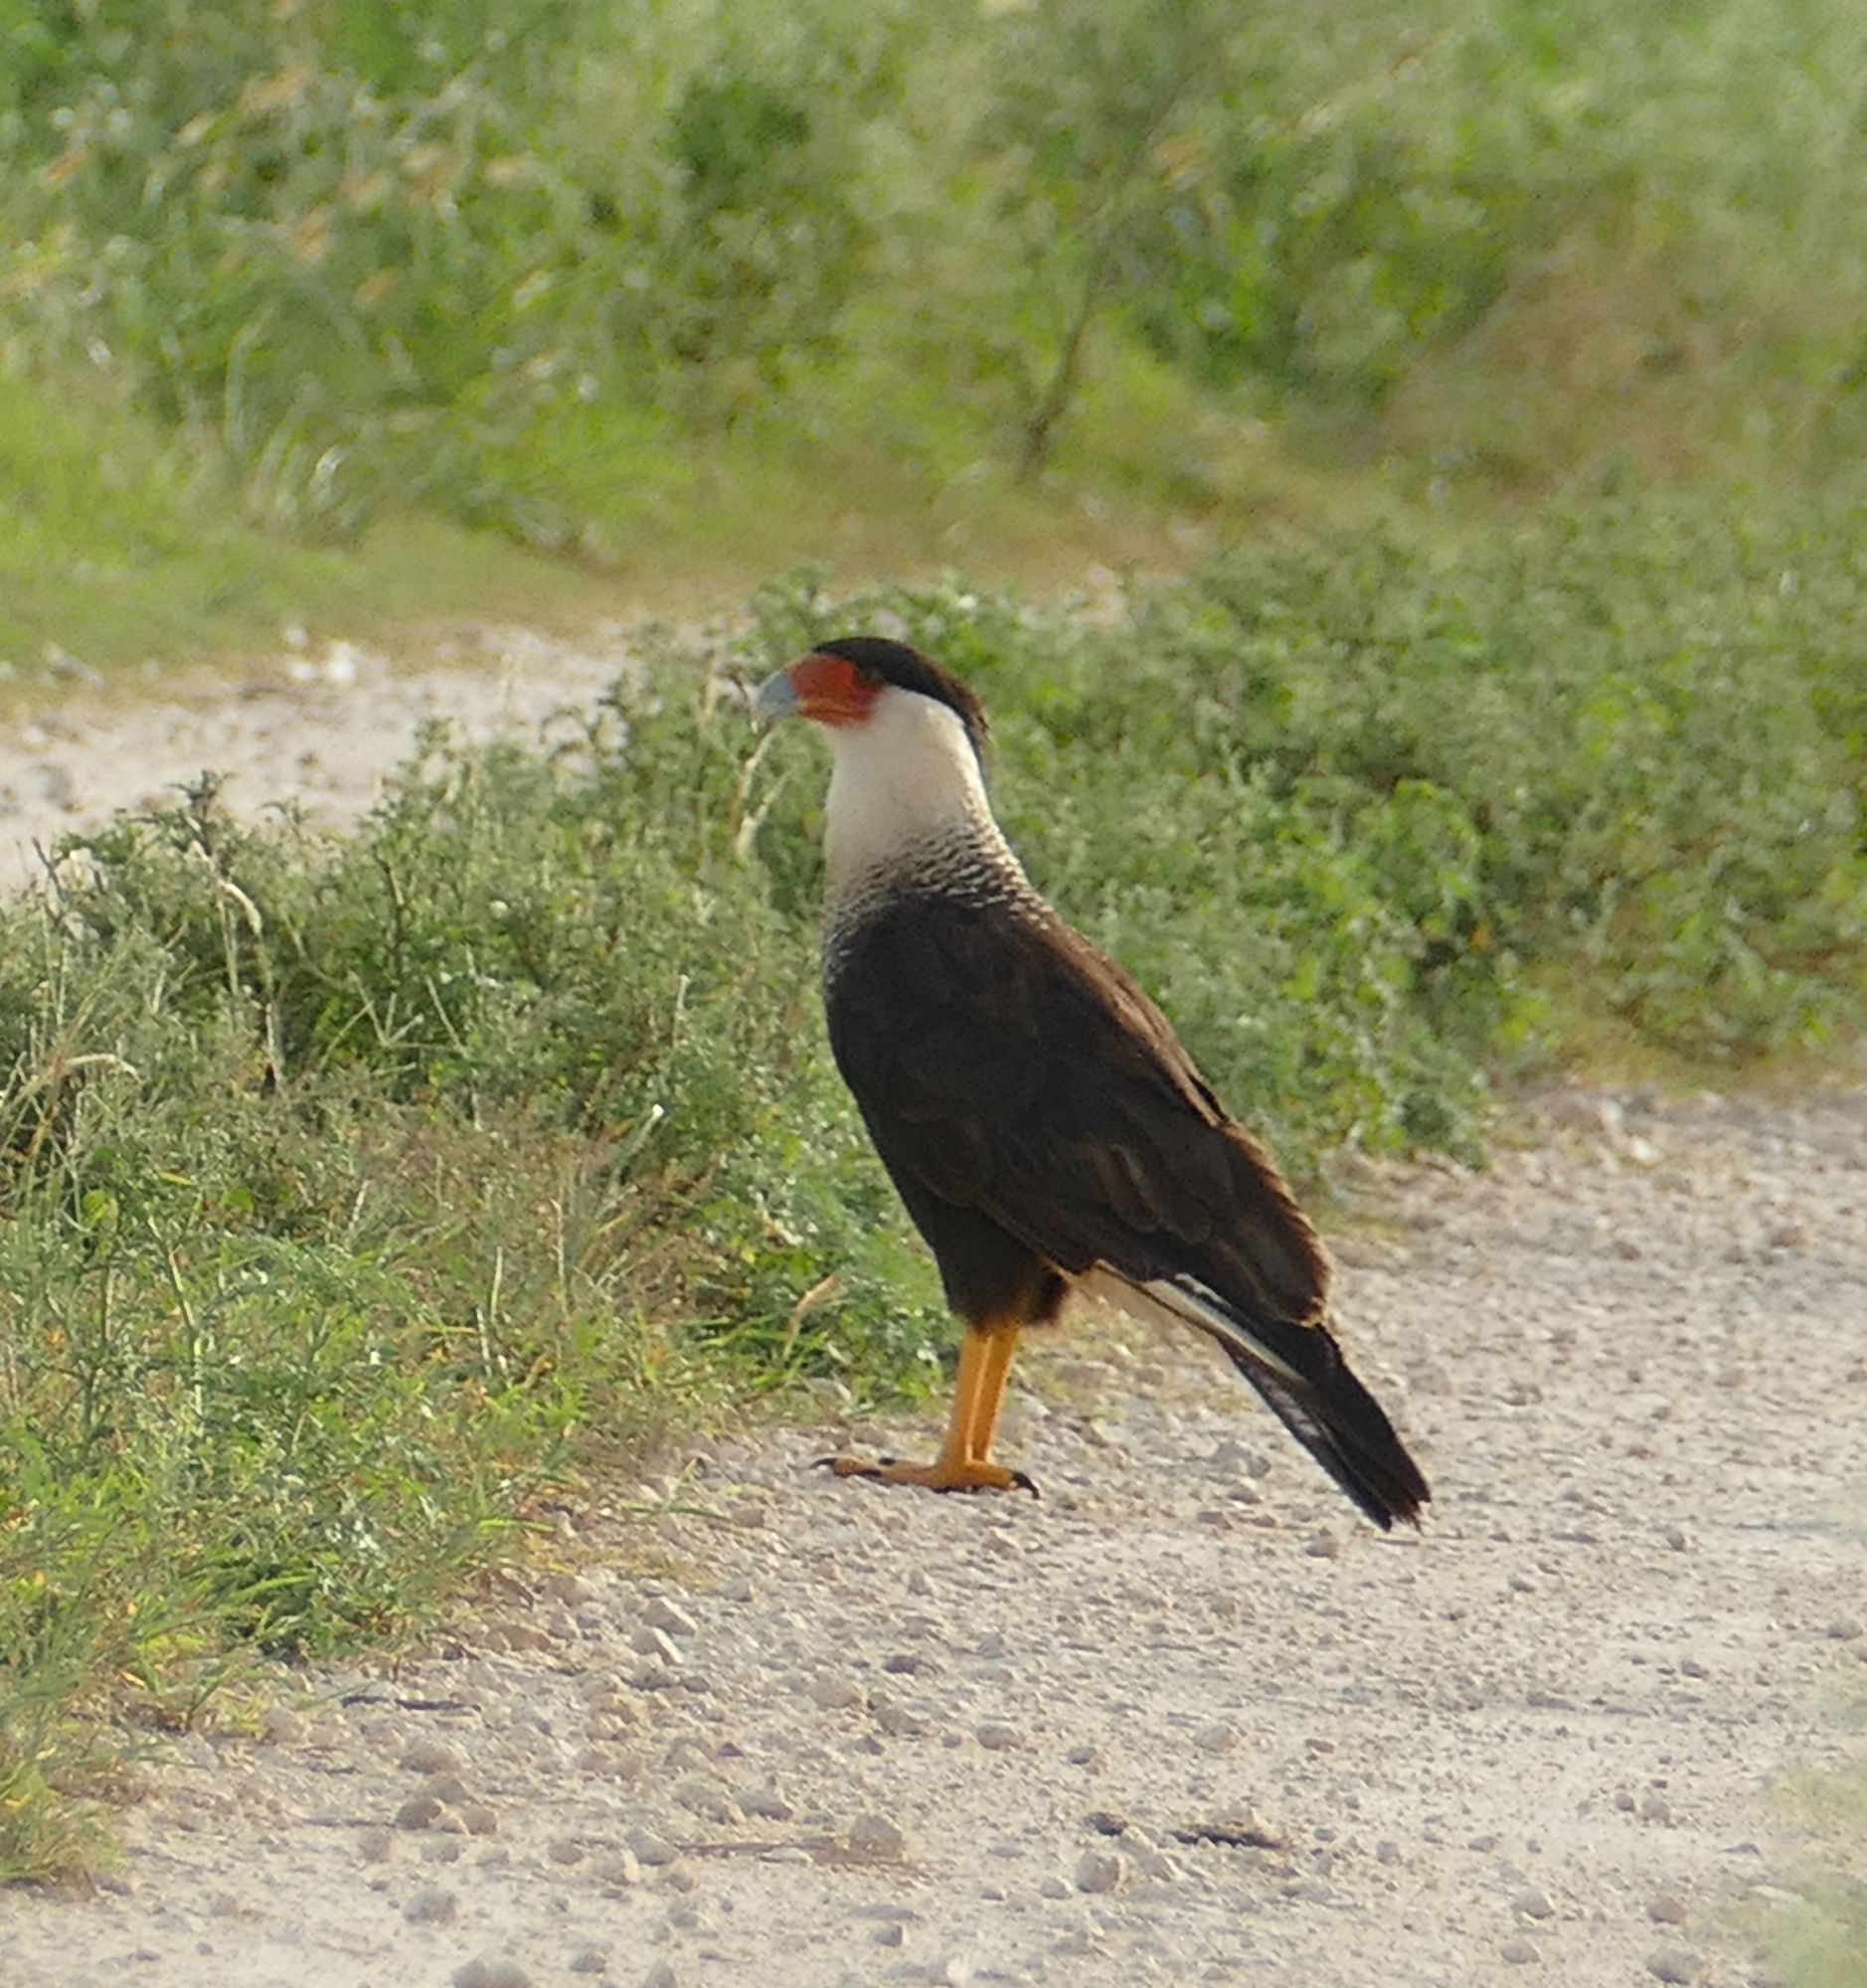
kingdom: Animalia
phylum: Chordata
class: Aves
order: Falconiformes
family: Falconidae
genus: Caracara
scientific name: Caracara plancus
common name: Southern caracara
